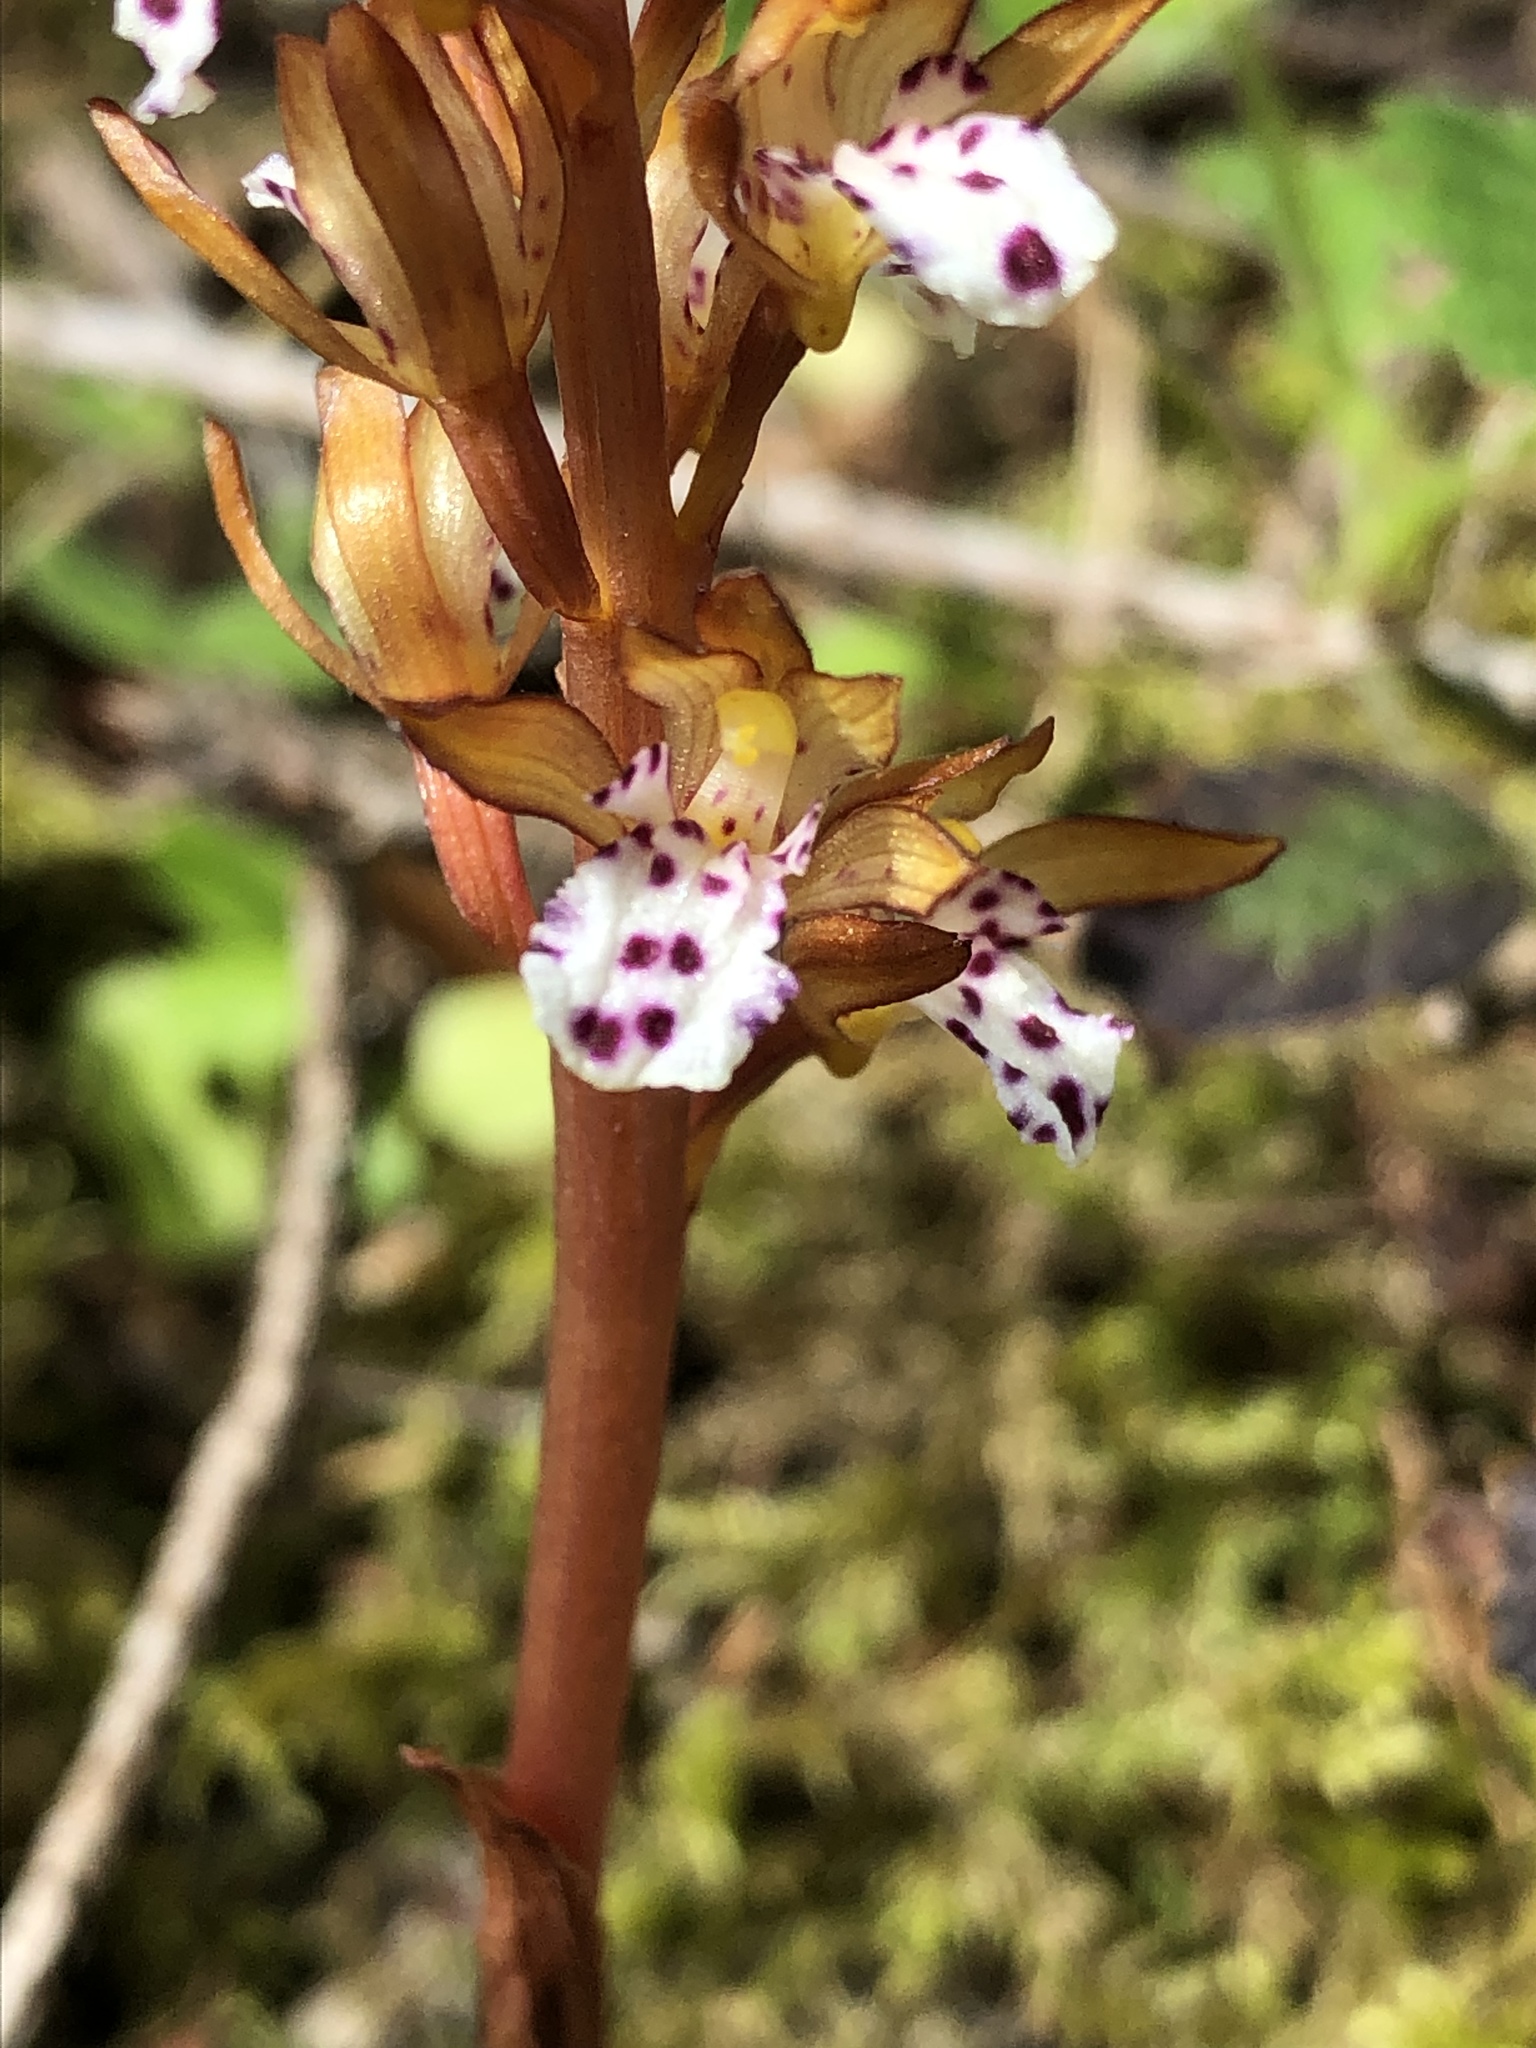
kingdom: Plantae
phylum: Tracheophyta
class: Liliopsida
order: Asparagales
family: Orchidaceae
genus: Corallorhiza
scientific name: Corallorhiza maculata
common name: Spotted coralroot
